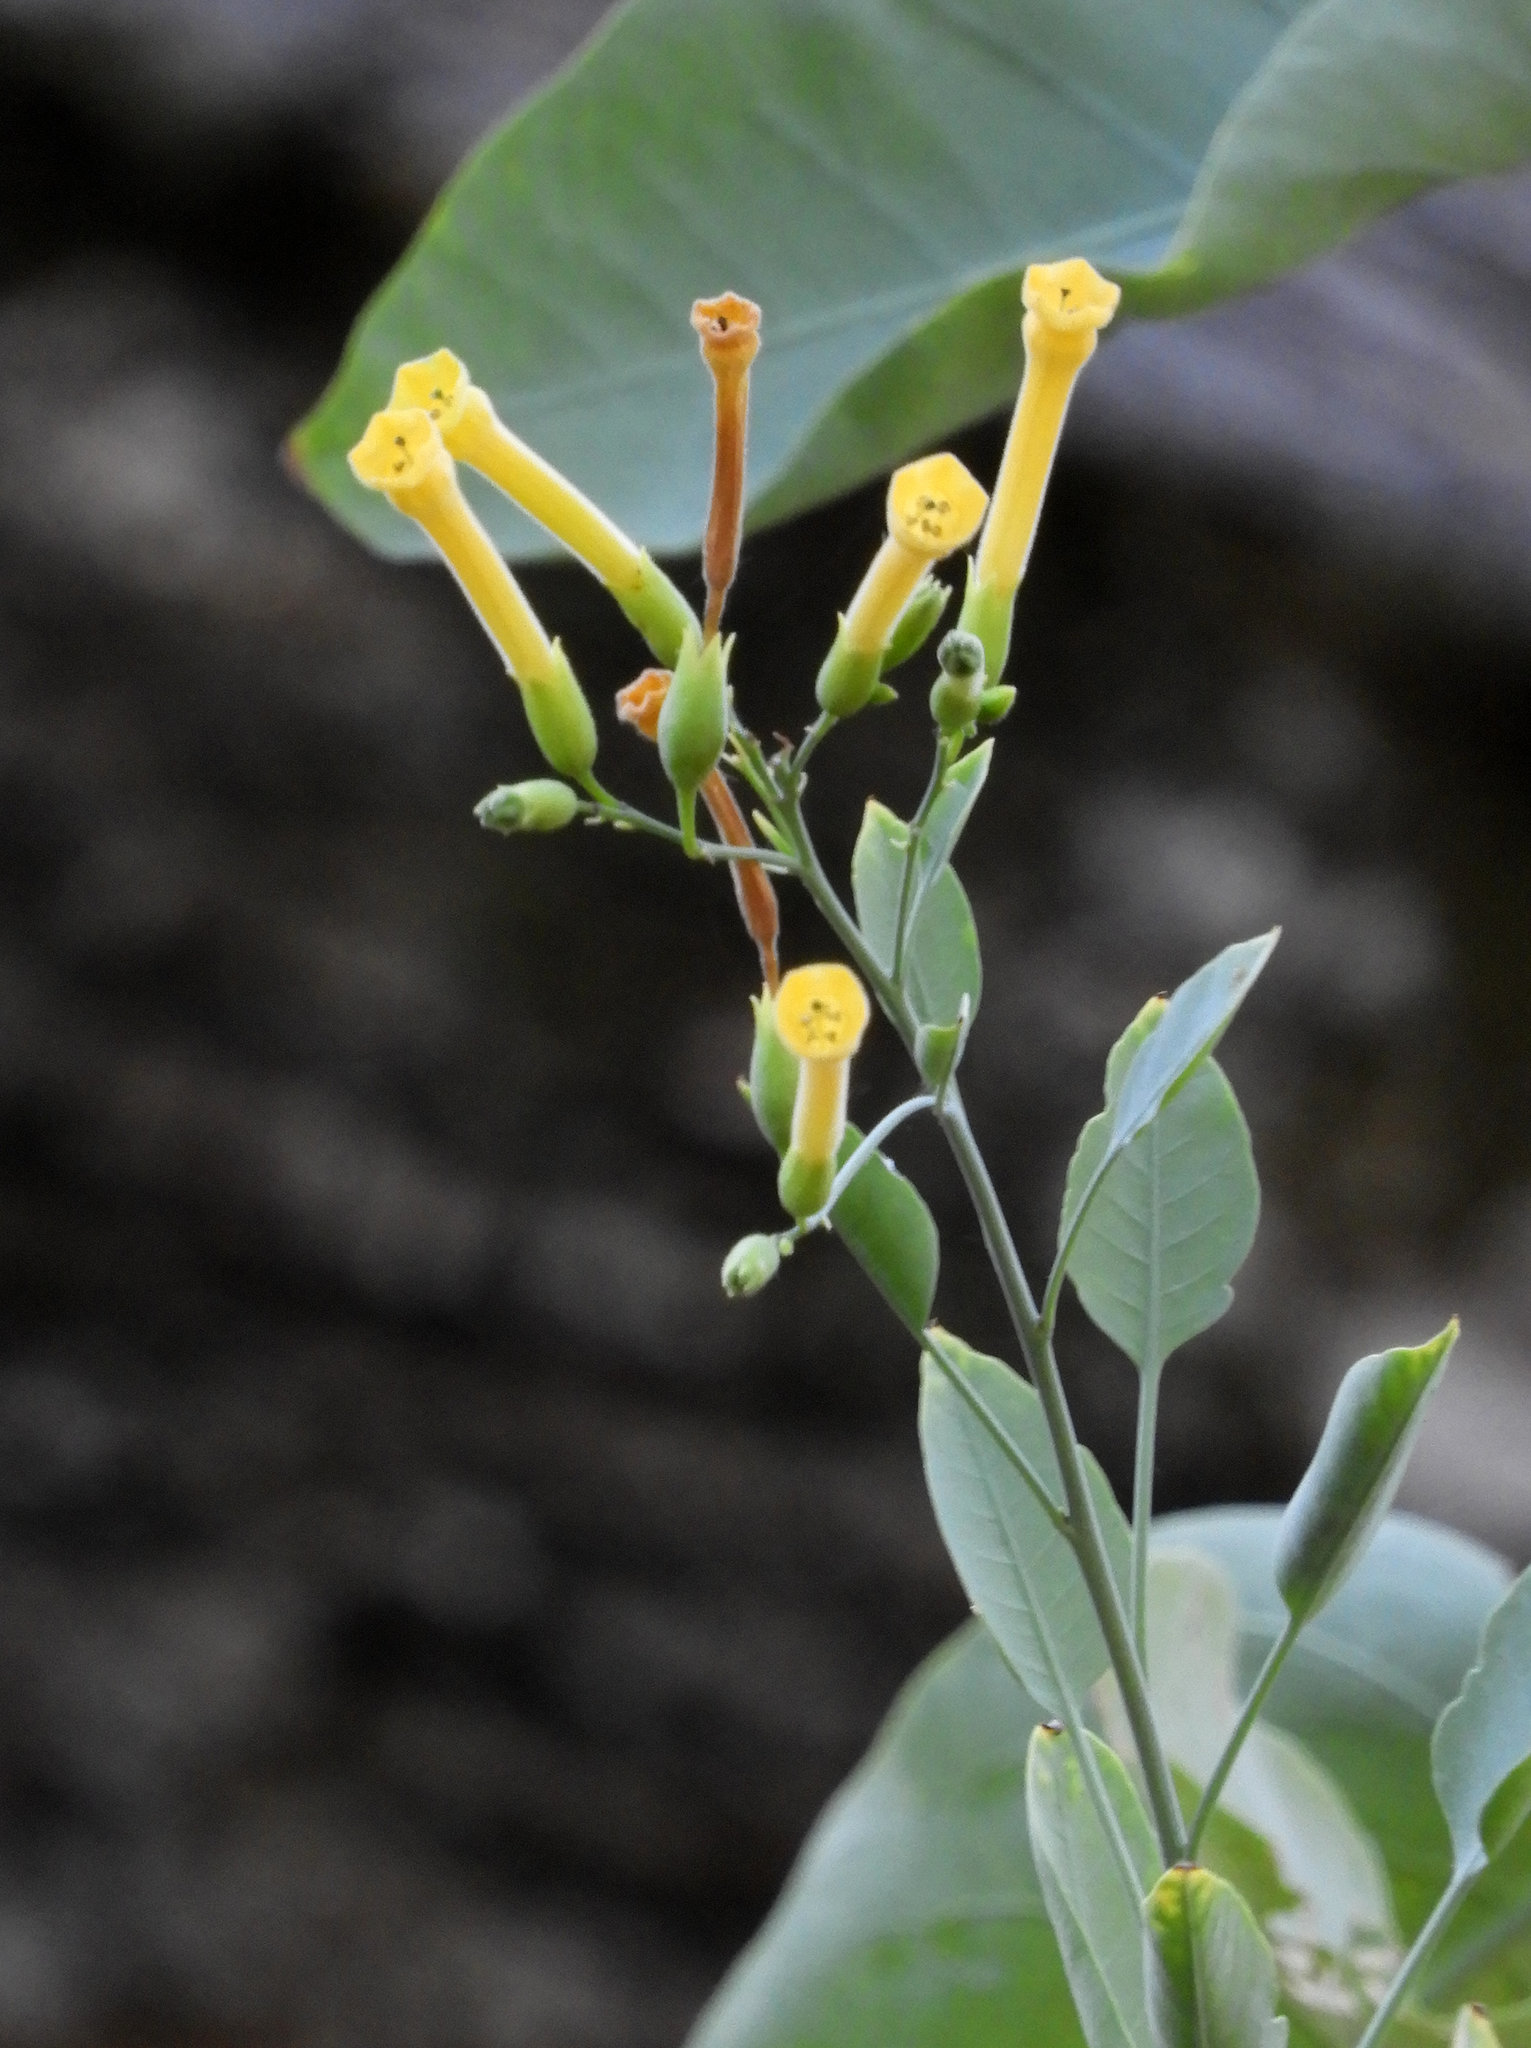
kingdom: Plantae
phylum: Tracheophyta
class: Magnoliopsida
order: Solanales
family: Solanaceae
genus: Nicotiana
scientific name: Nicotiana glauca
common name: Tree tobacco
